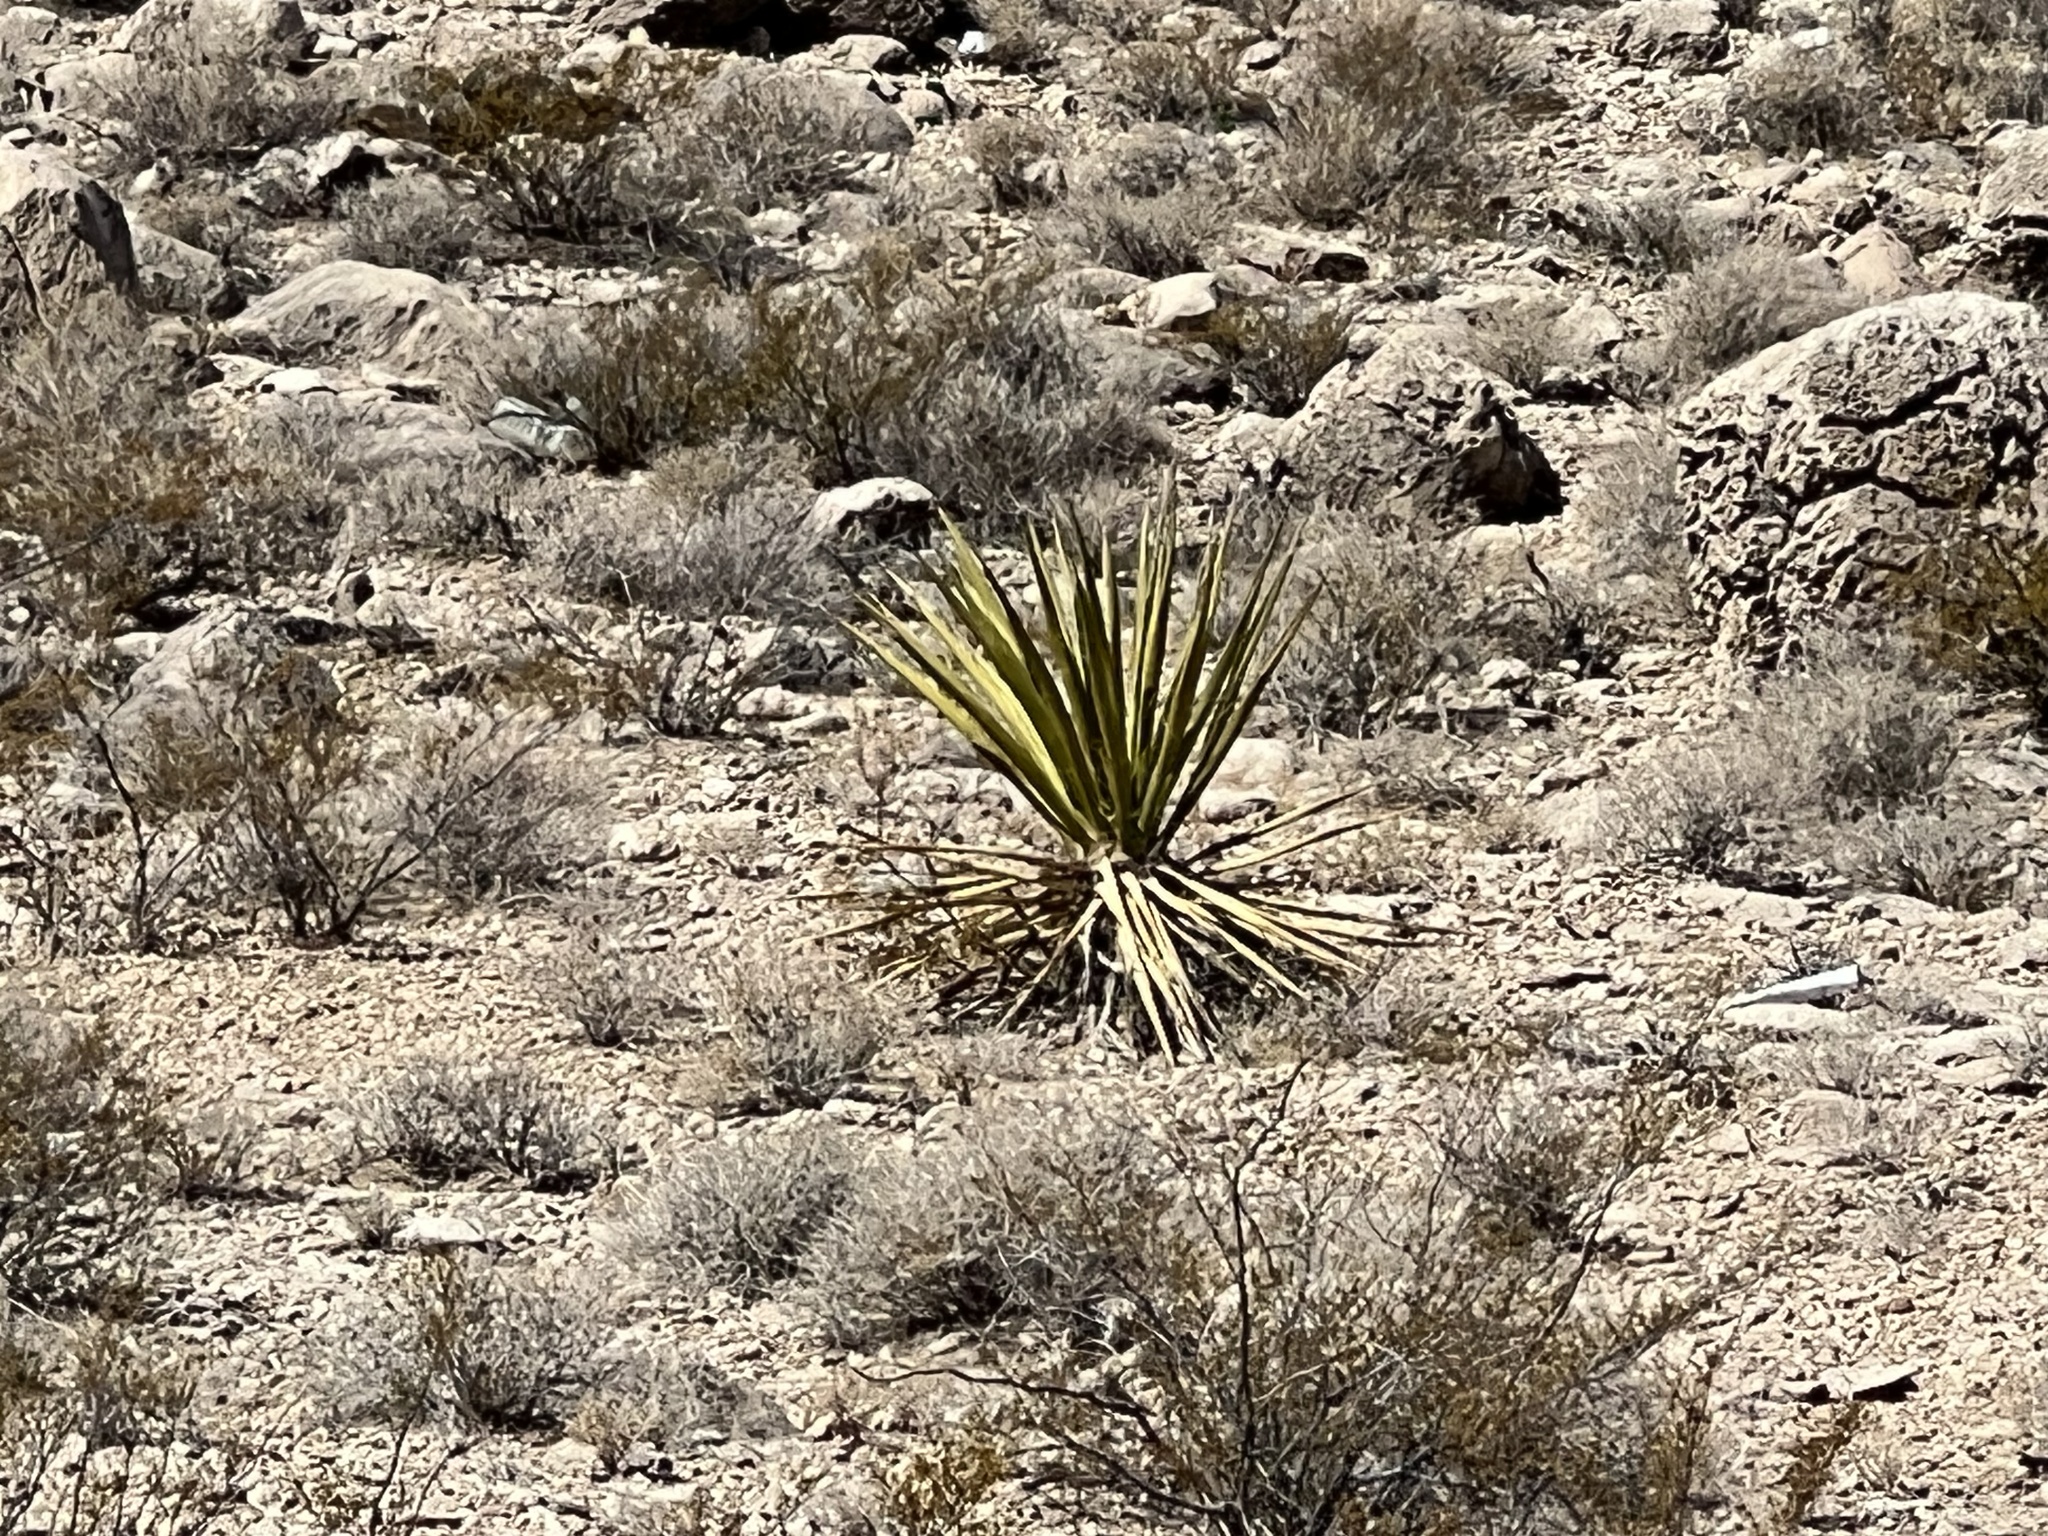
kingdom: Plantae
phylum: Tracheophyta
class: Liliopsida
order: Asparagales
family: Asparagaceae
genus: Yucca
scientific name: Yucca schidigera
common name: Mojave yucca
